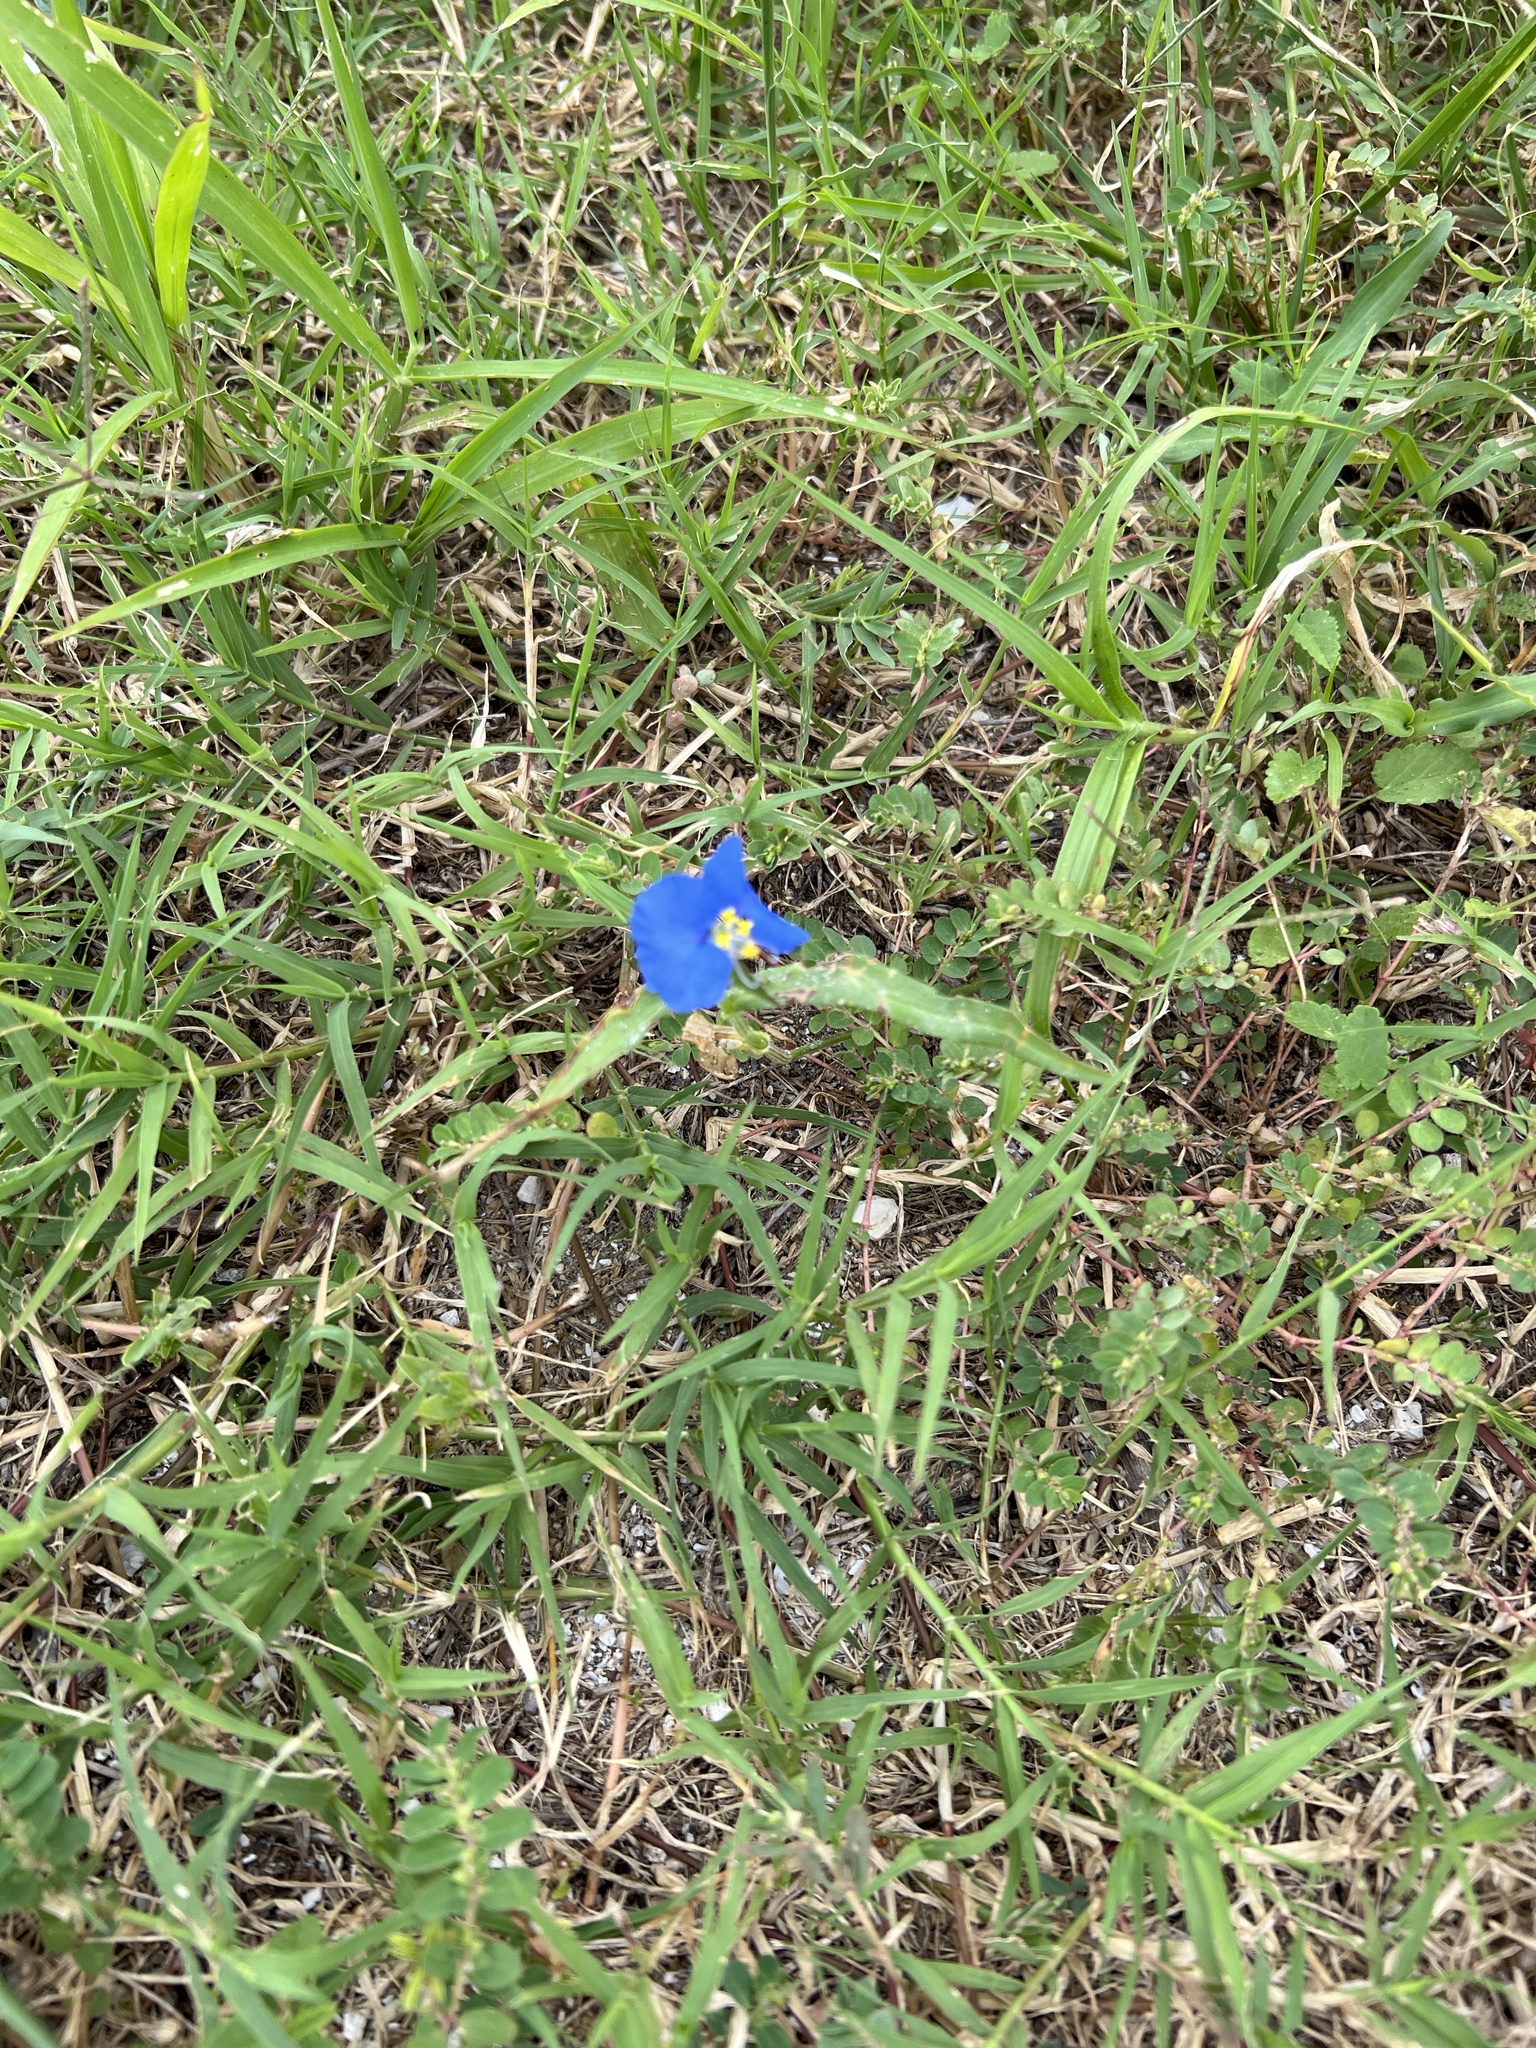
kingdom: Plantae
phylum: Tracheophyta
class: Liliopsida
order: Commelinales
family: Commelinaceae
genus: Commelina
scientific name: Commelina erecta
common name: Blousel blommetjie
